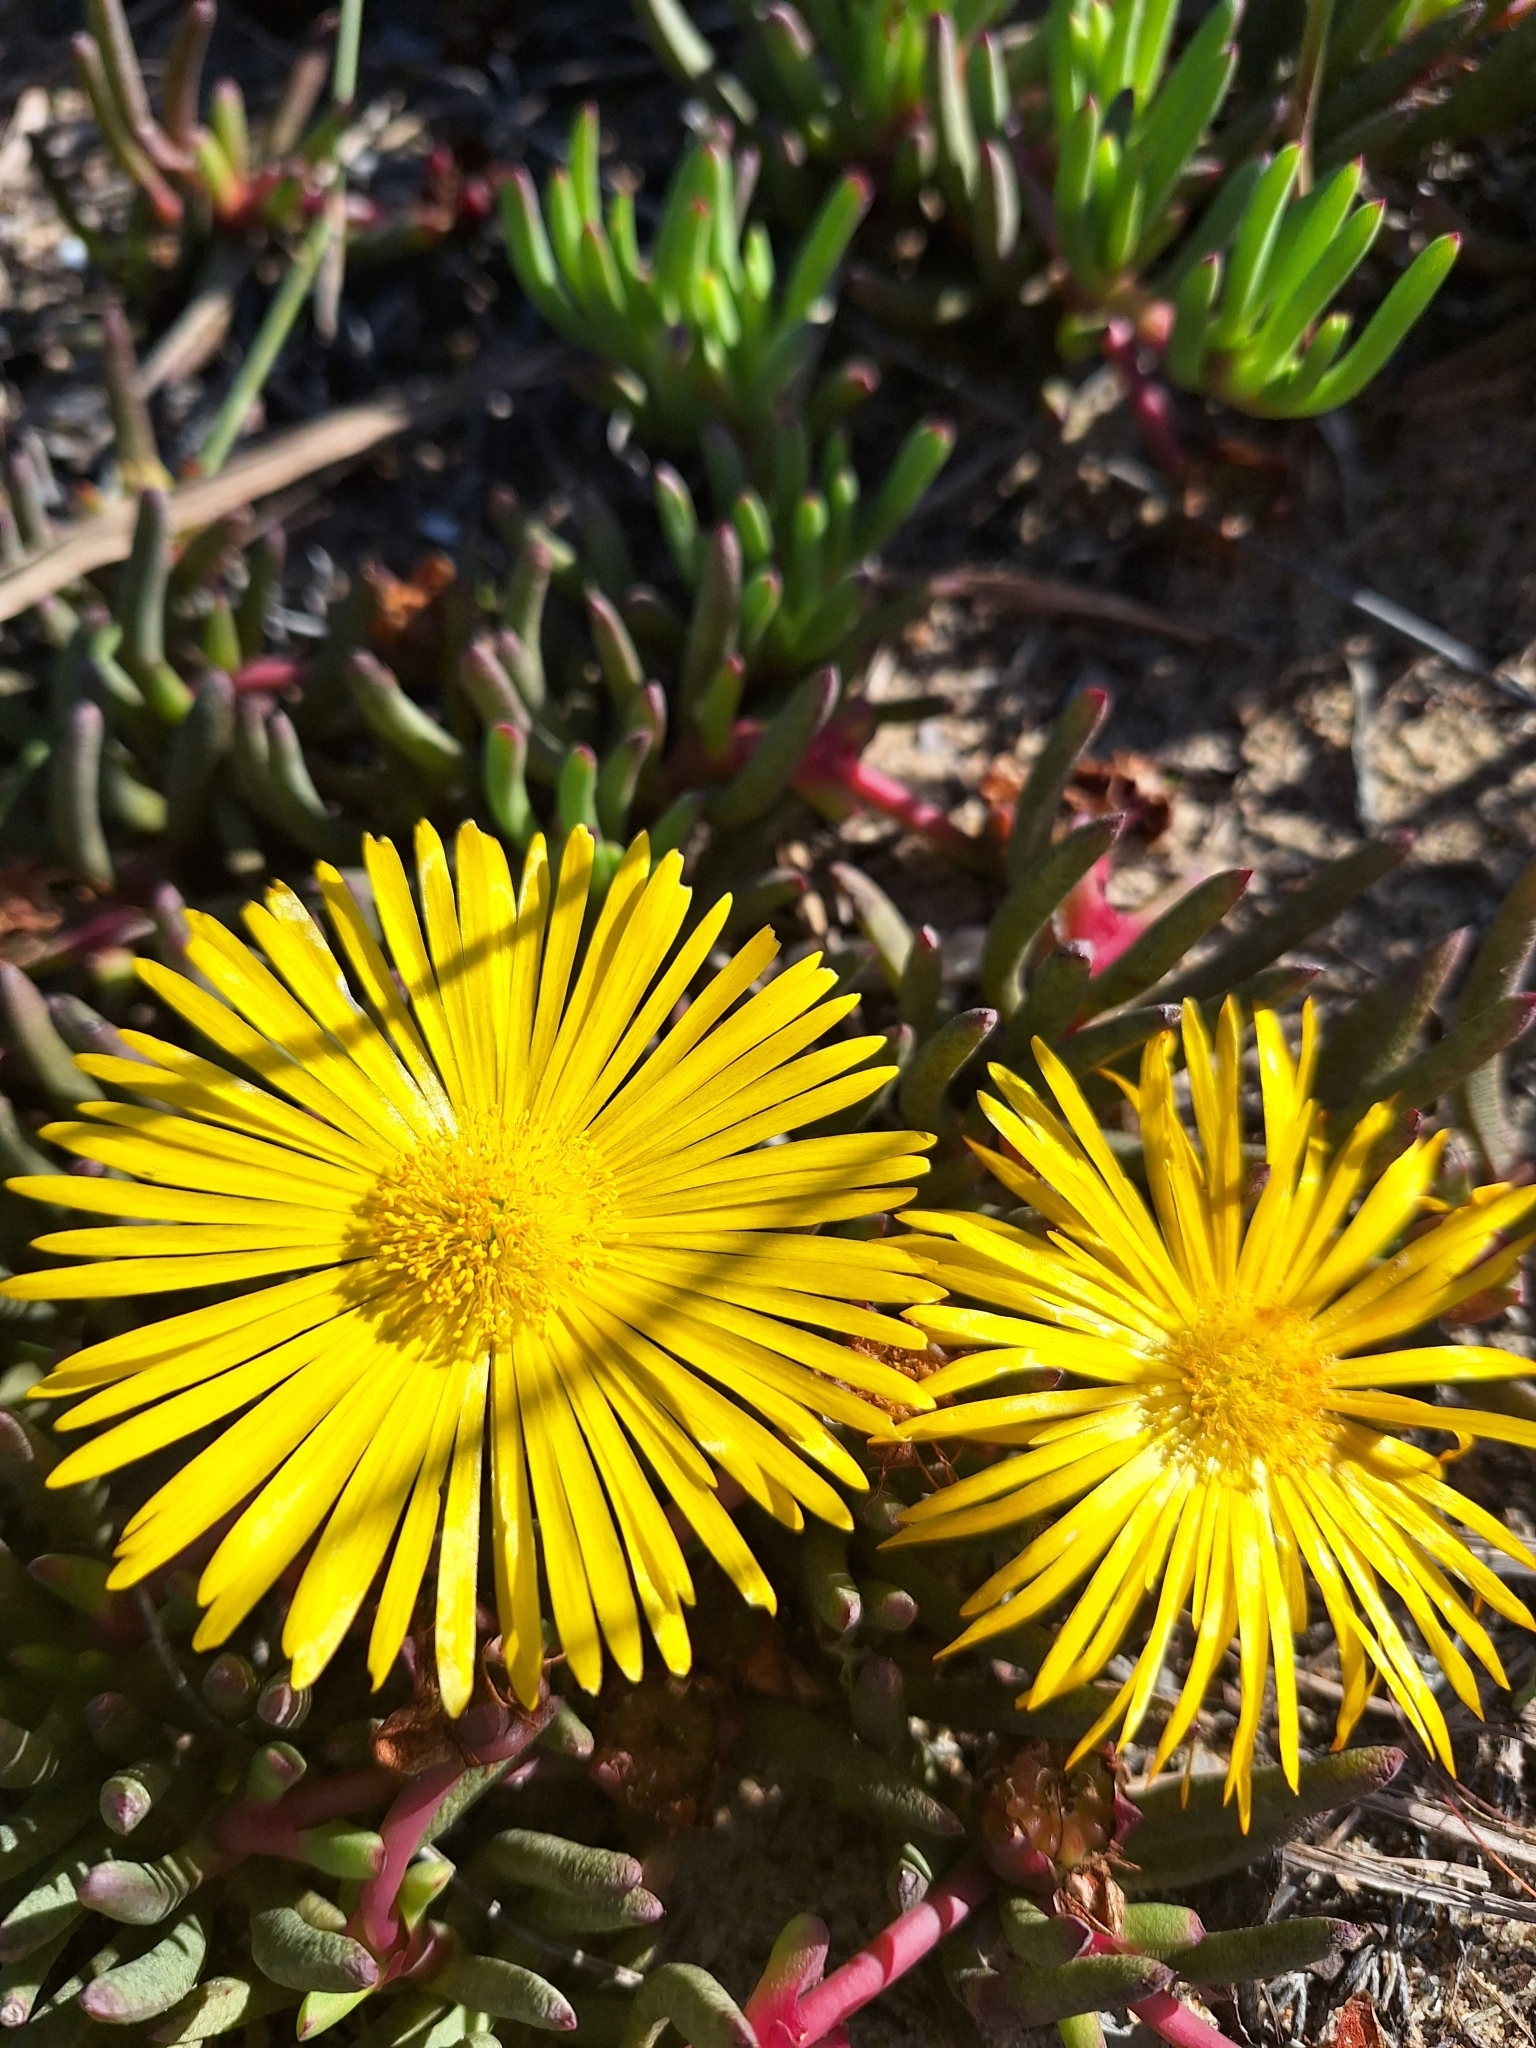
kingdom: Plantae
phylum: Tracheophyta
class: Magnoliopsida
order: Caryophyllales
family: Aizoaceae
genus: Jordaaniella
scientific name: Jordaaniella dubia
